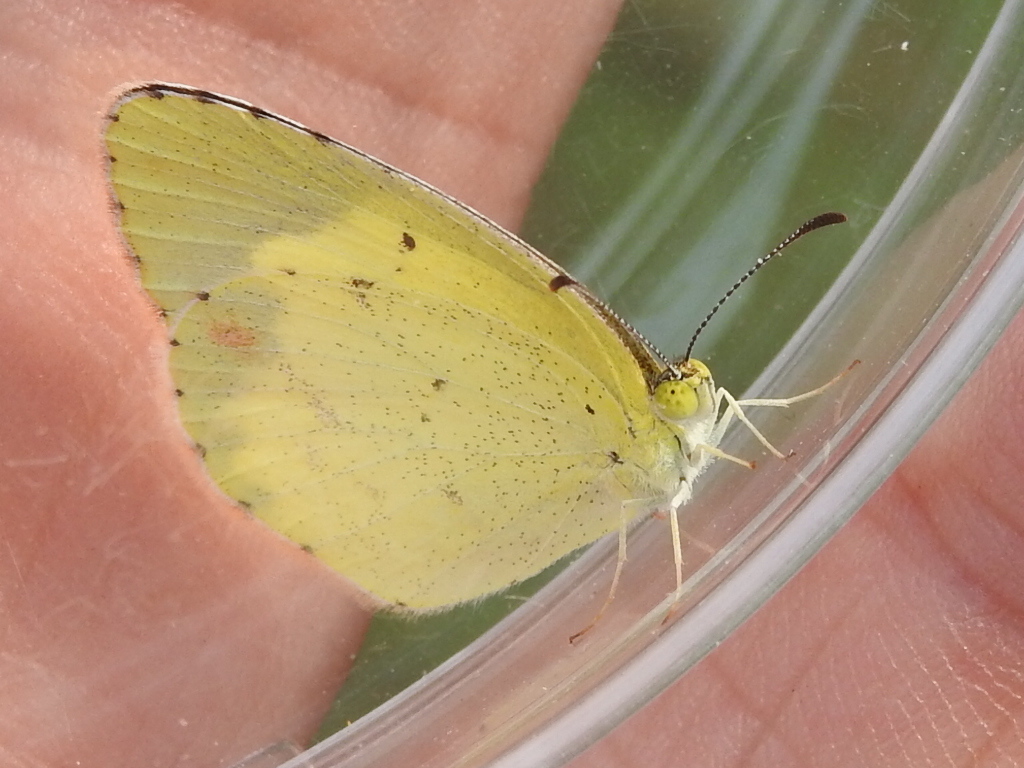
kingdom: Animalia
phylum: Arthropoda
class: Insecta
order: Lepidoptera
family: Pieridae
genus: Pyrisitia
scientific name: Pyrisitia lisa
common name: Little yellow
